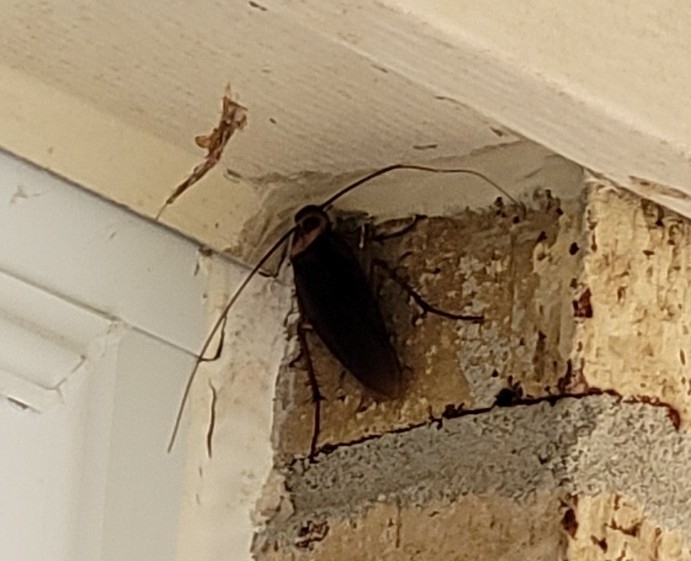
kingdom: Animalia
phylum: Arthropoda
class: Insecta
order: Blattodea
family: Blattidae
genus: Periplaneta
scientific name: Periplaneta americana
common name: American cockroach
